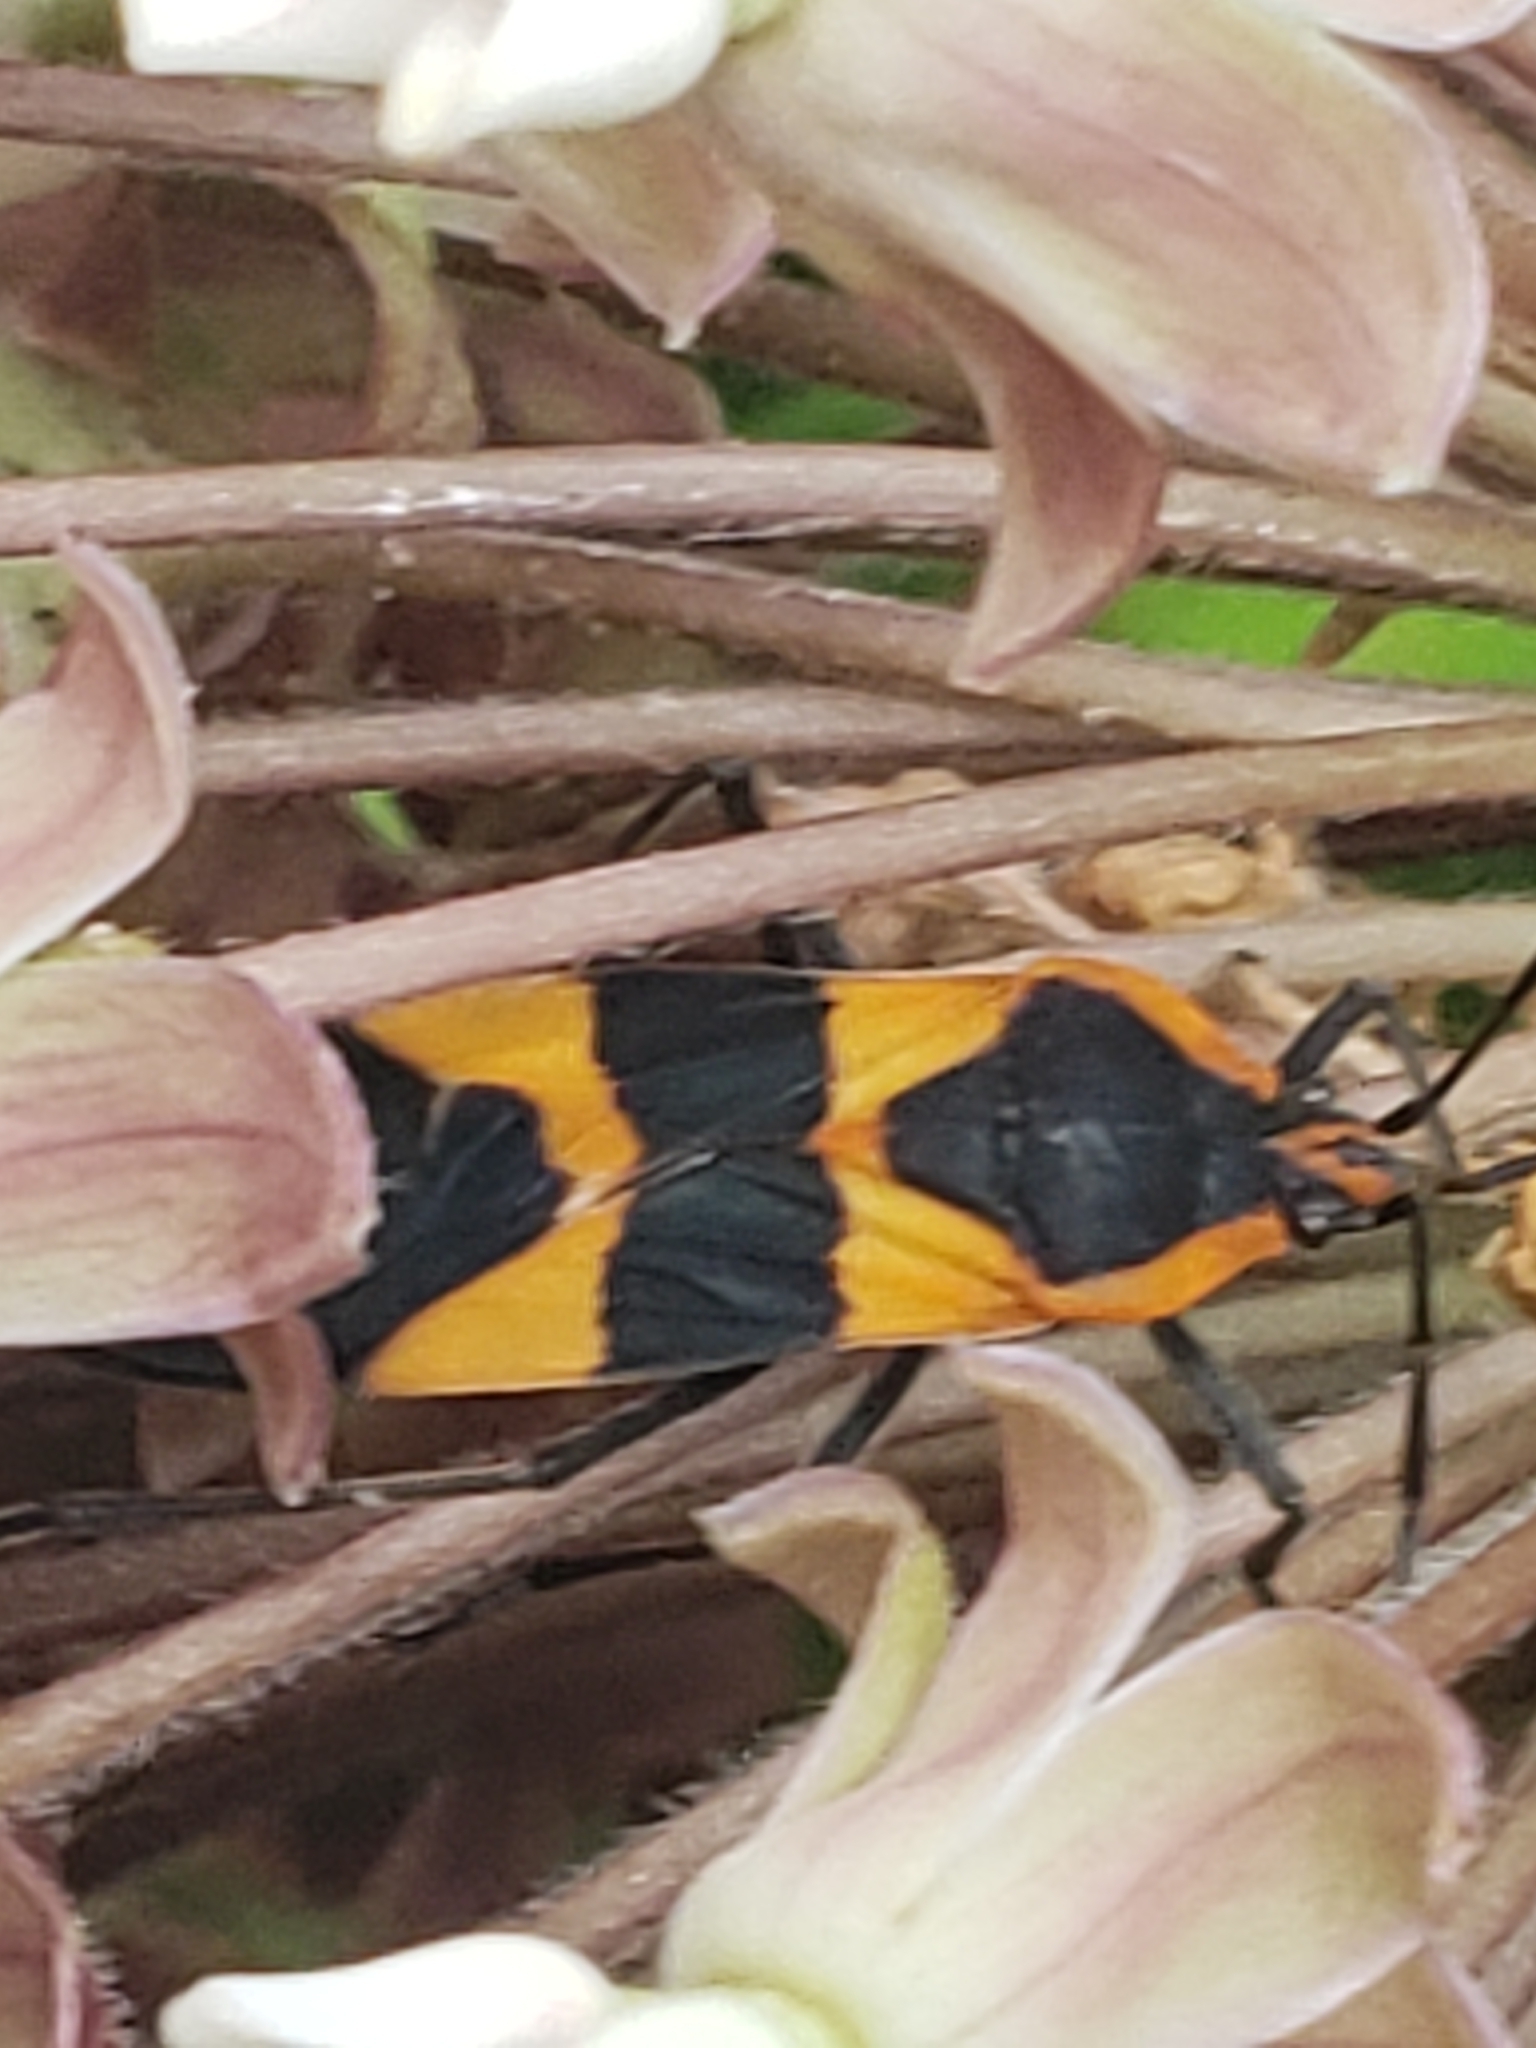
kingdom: Animalia
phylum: Arthropoda
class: Insecta
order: Hemiptera
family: Lygaeidae
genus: Oncopeltus
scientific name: Oncopeltus fasciatus
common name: Large milkweed bug
